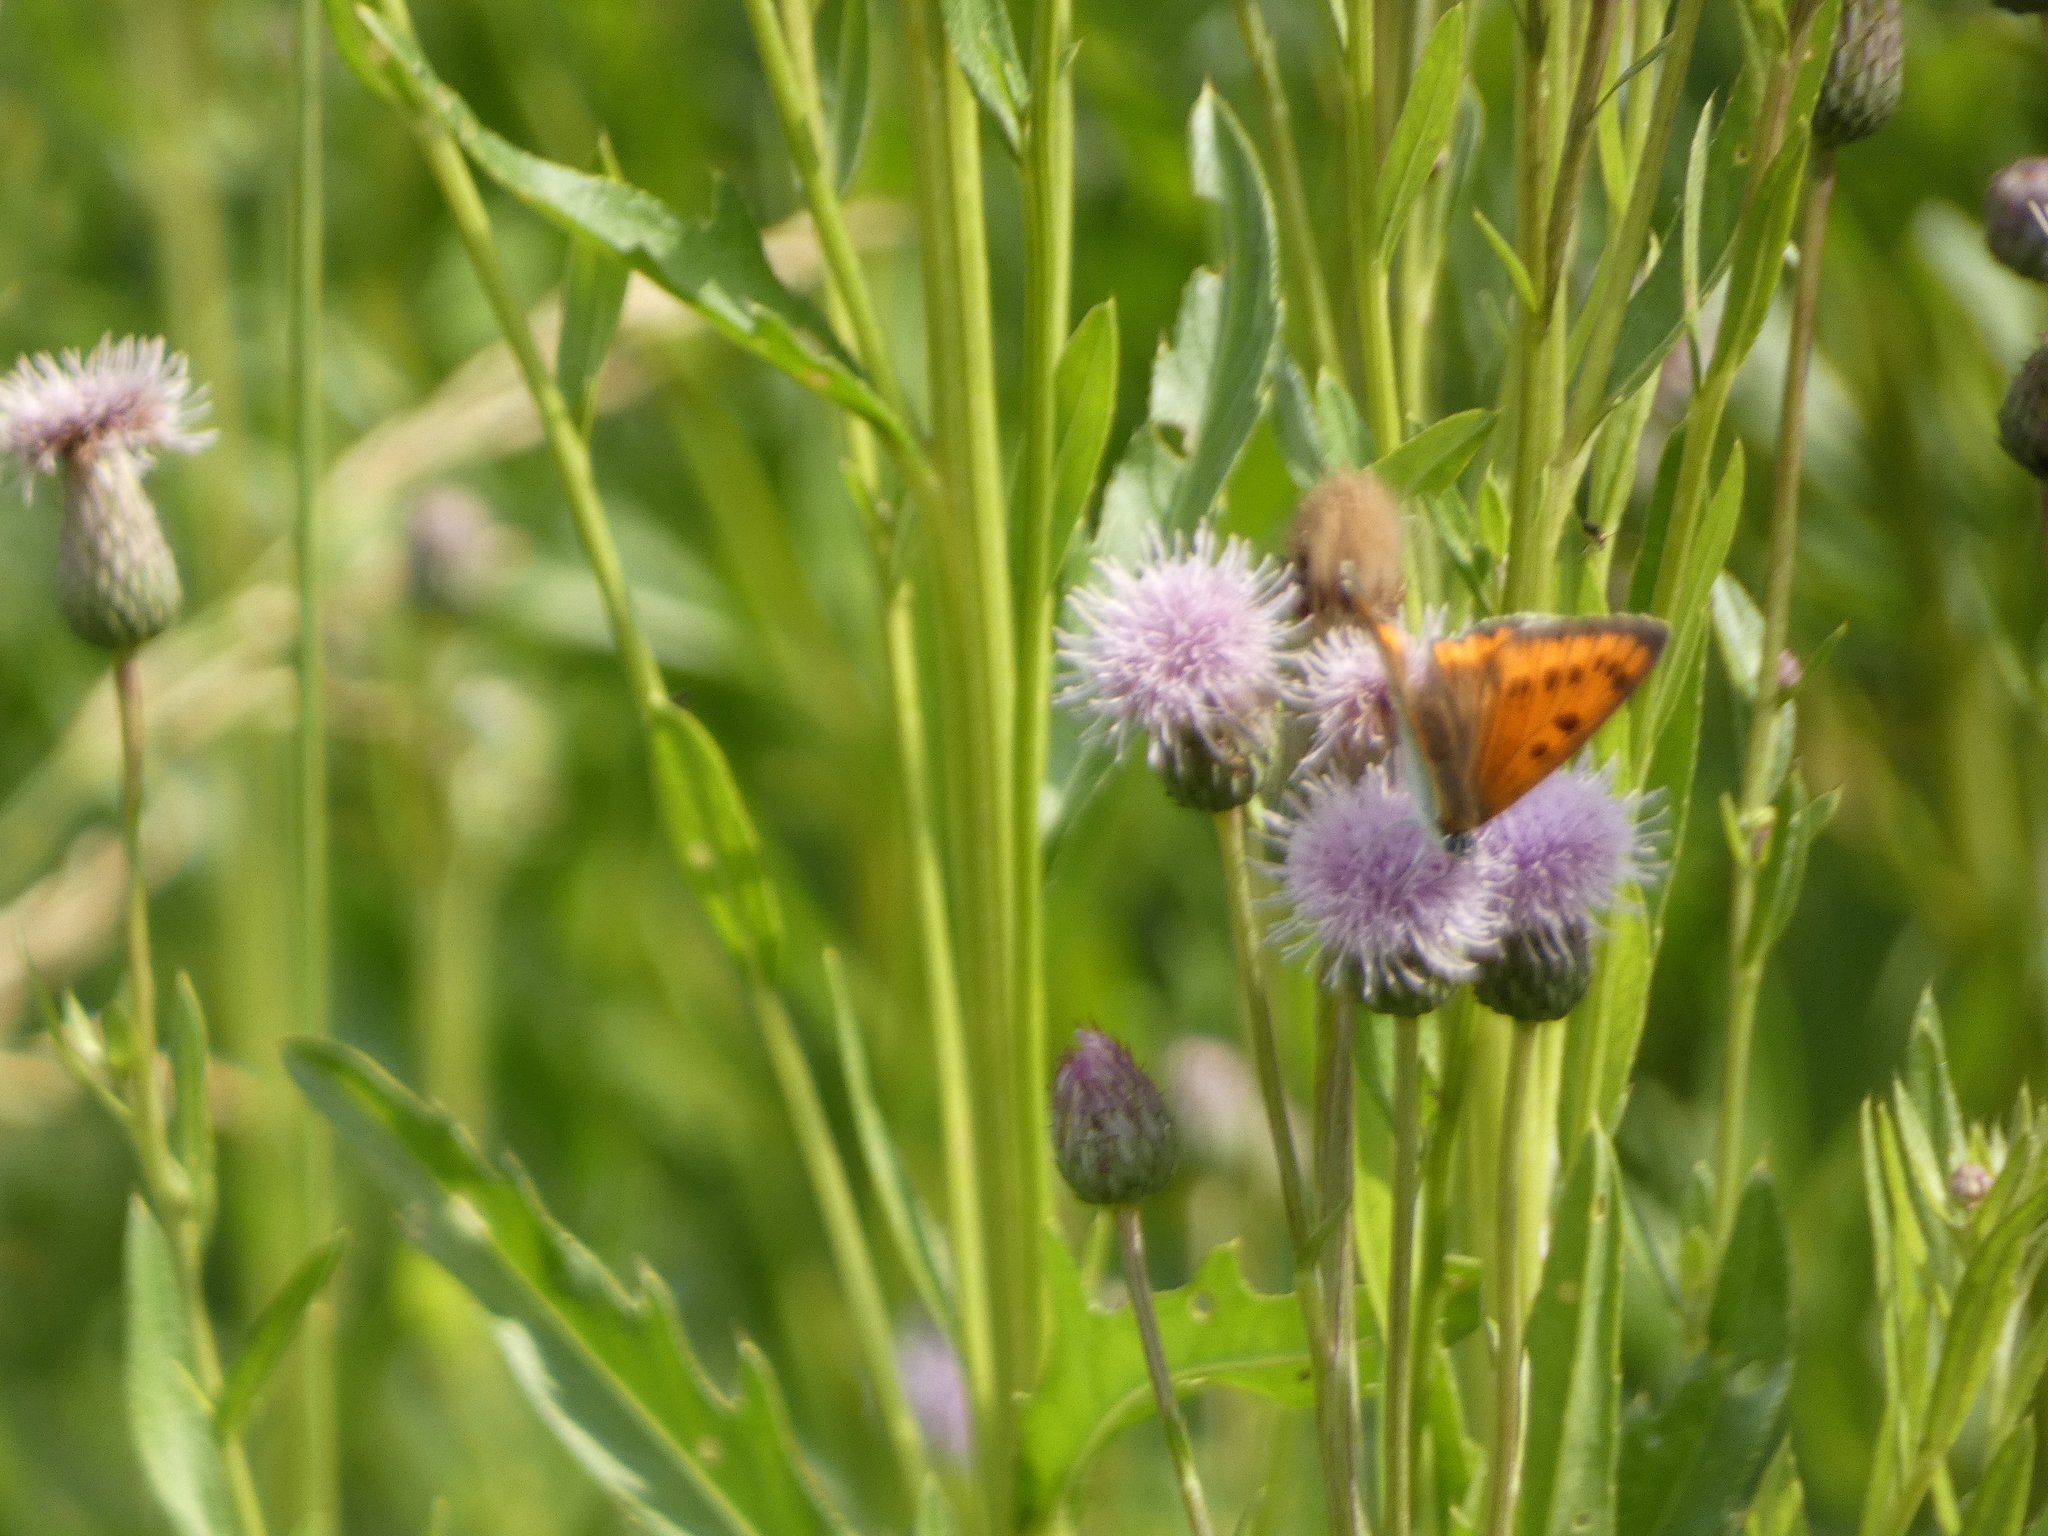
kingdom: Animalia
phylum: Arthropoda
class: Insecta
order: Lepidoptera
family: Lycaenidae
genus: Lycaena
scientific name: Lycaena dispar
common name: Large copper
